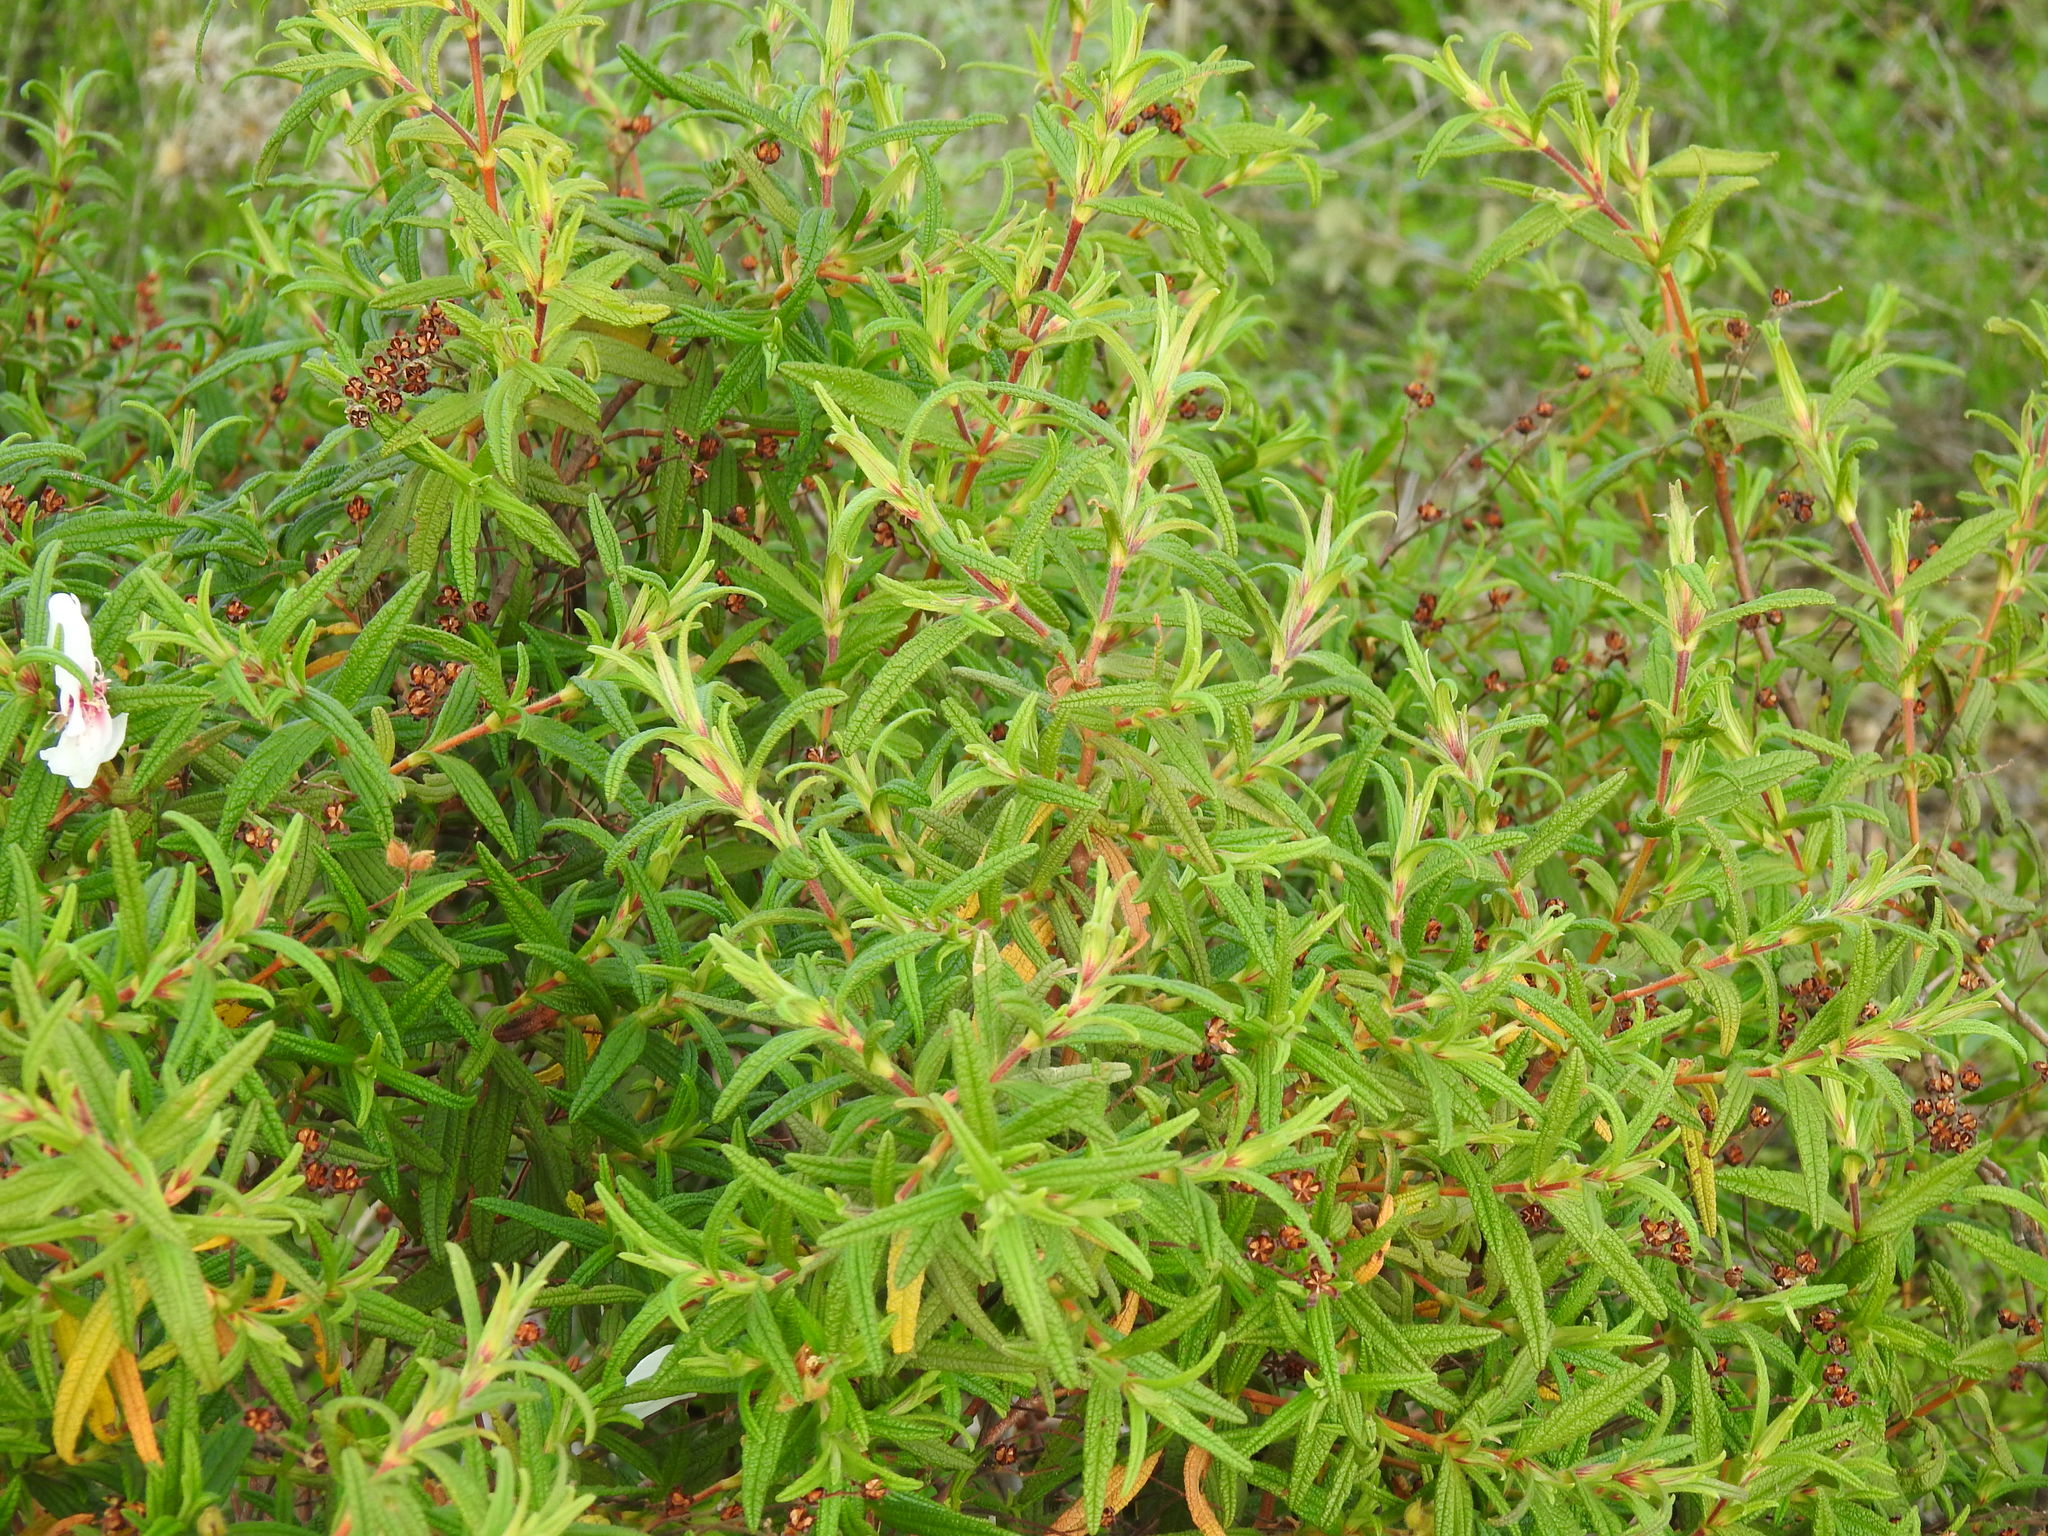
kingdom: Plantae
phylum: Tracheophyta
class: Magnoliopsida
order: Malvales
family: Cistaceae
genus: Cistus
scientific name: Cistus monspeliensis
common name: Montpelier cistus
